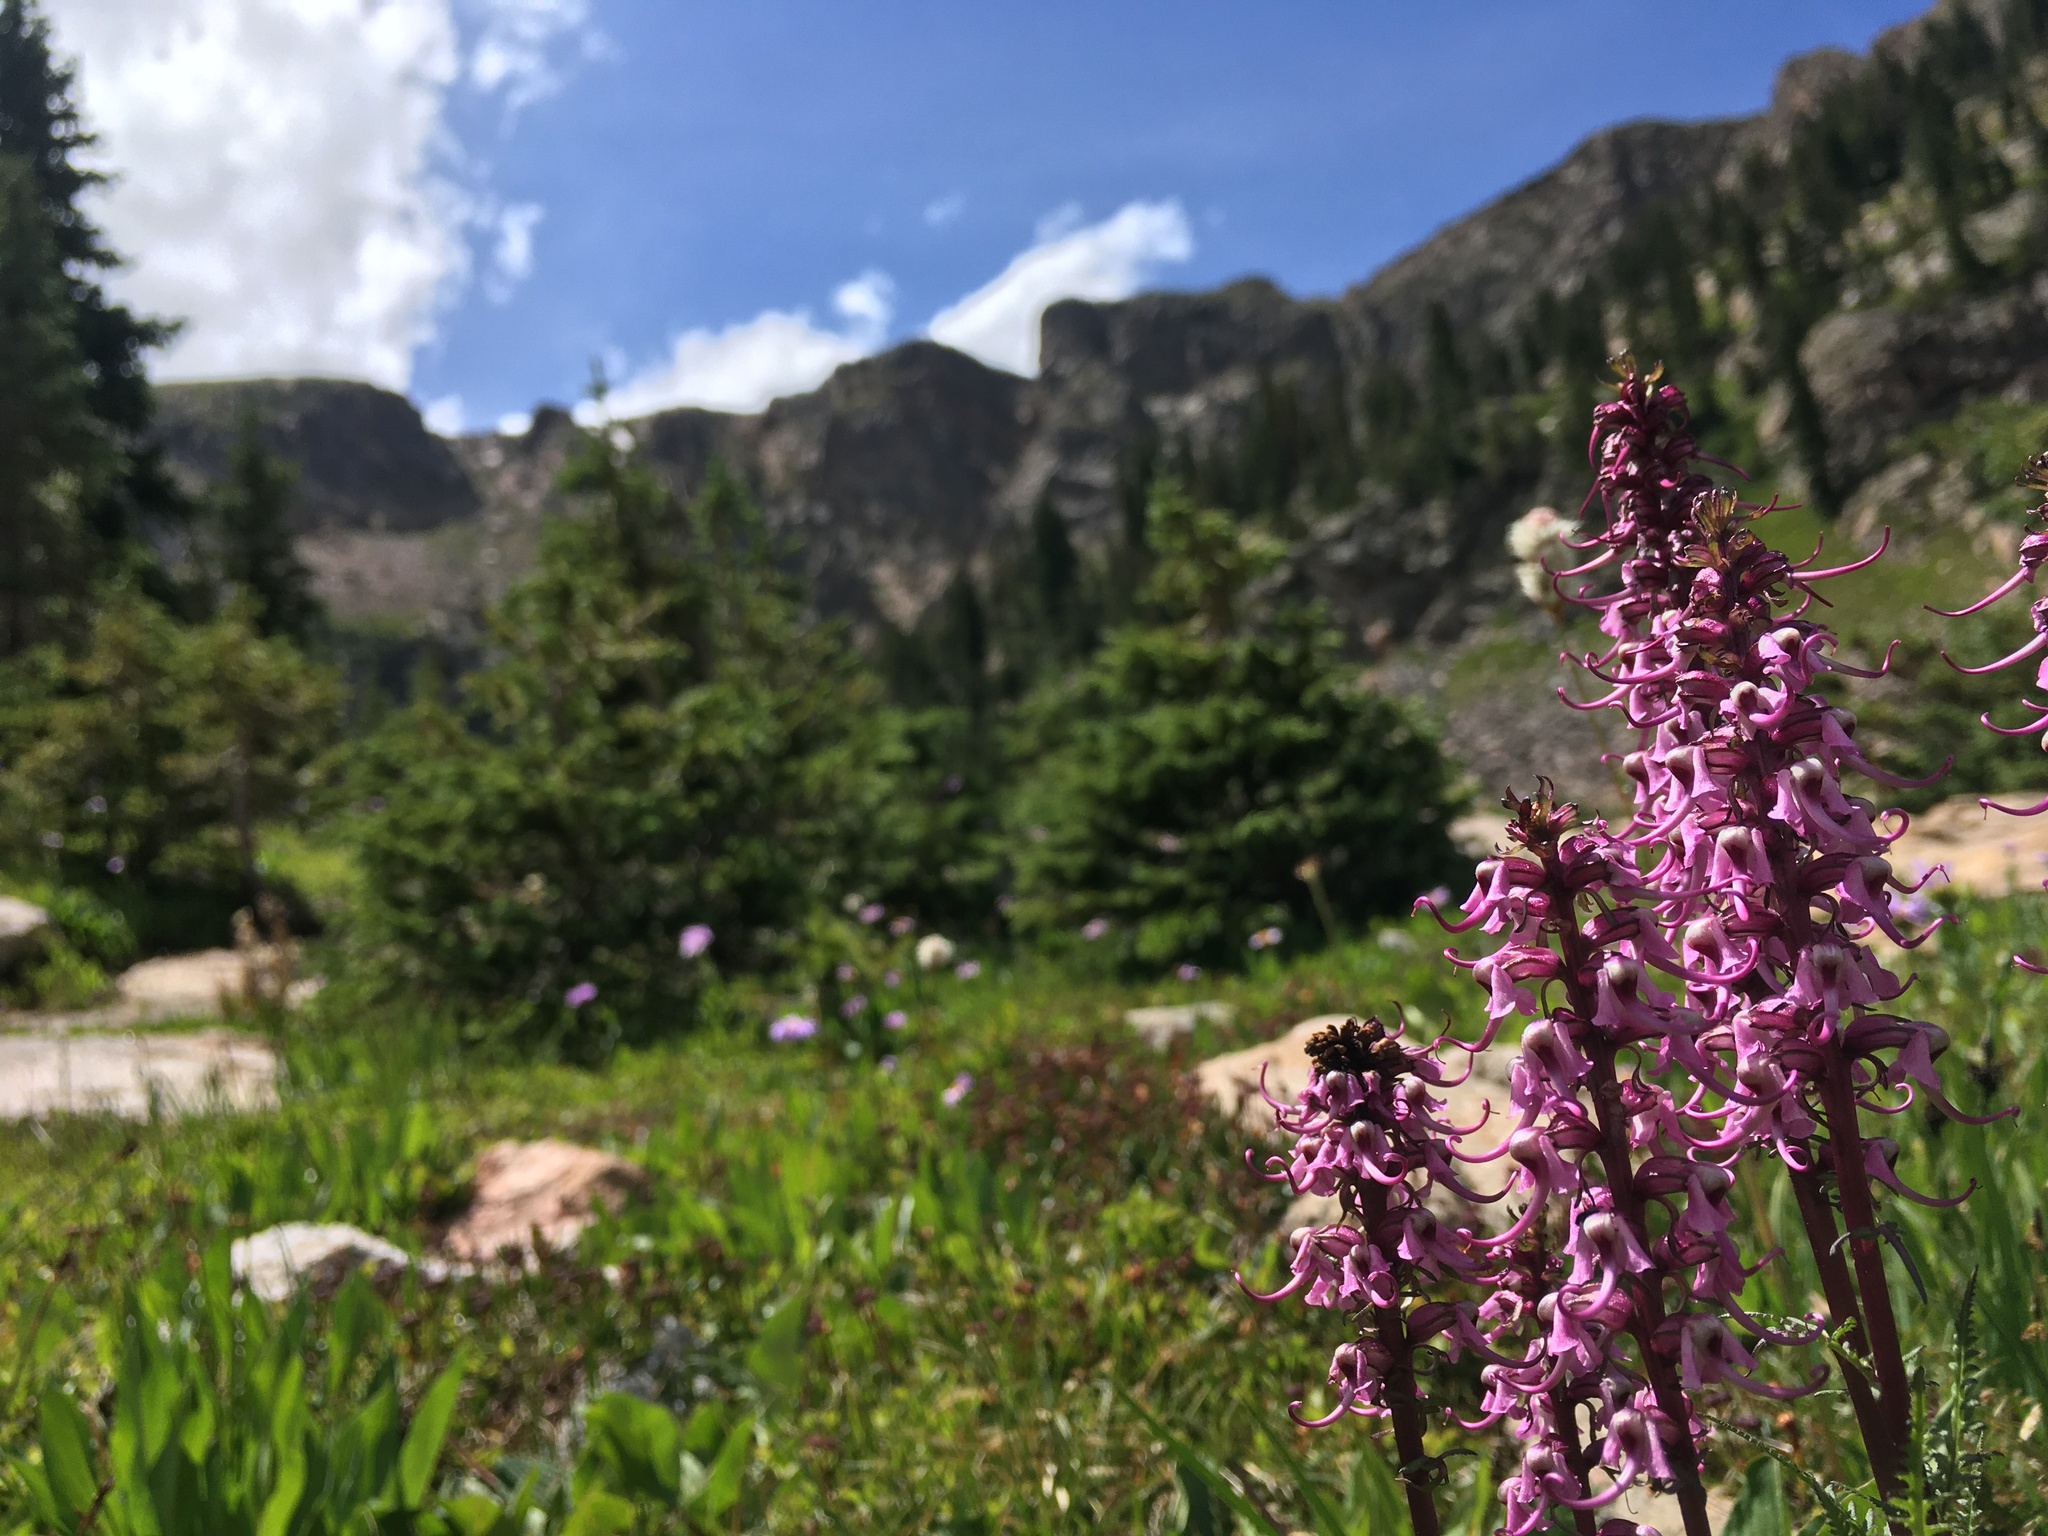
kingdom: Plantae
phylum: Tracheophyta
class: Magnoliopsida
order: Lamiales
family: Orobanchaceae
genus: Pedicularis
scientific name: Pedicularis groenlandica
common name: Elephant's-head
